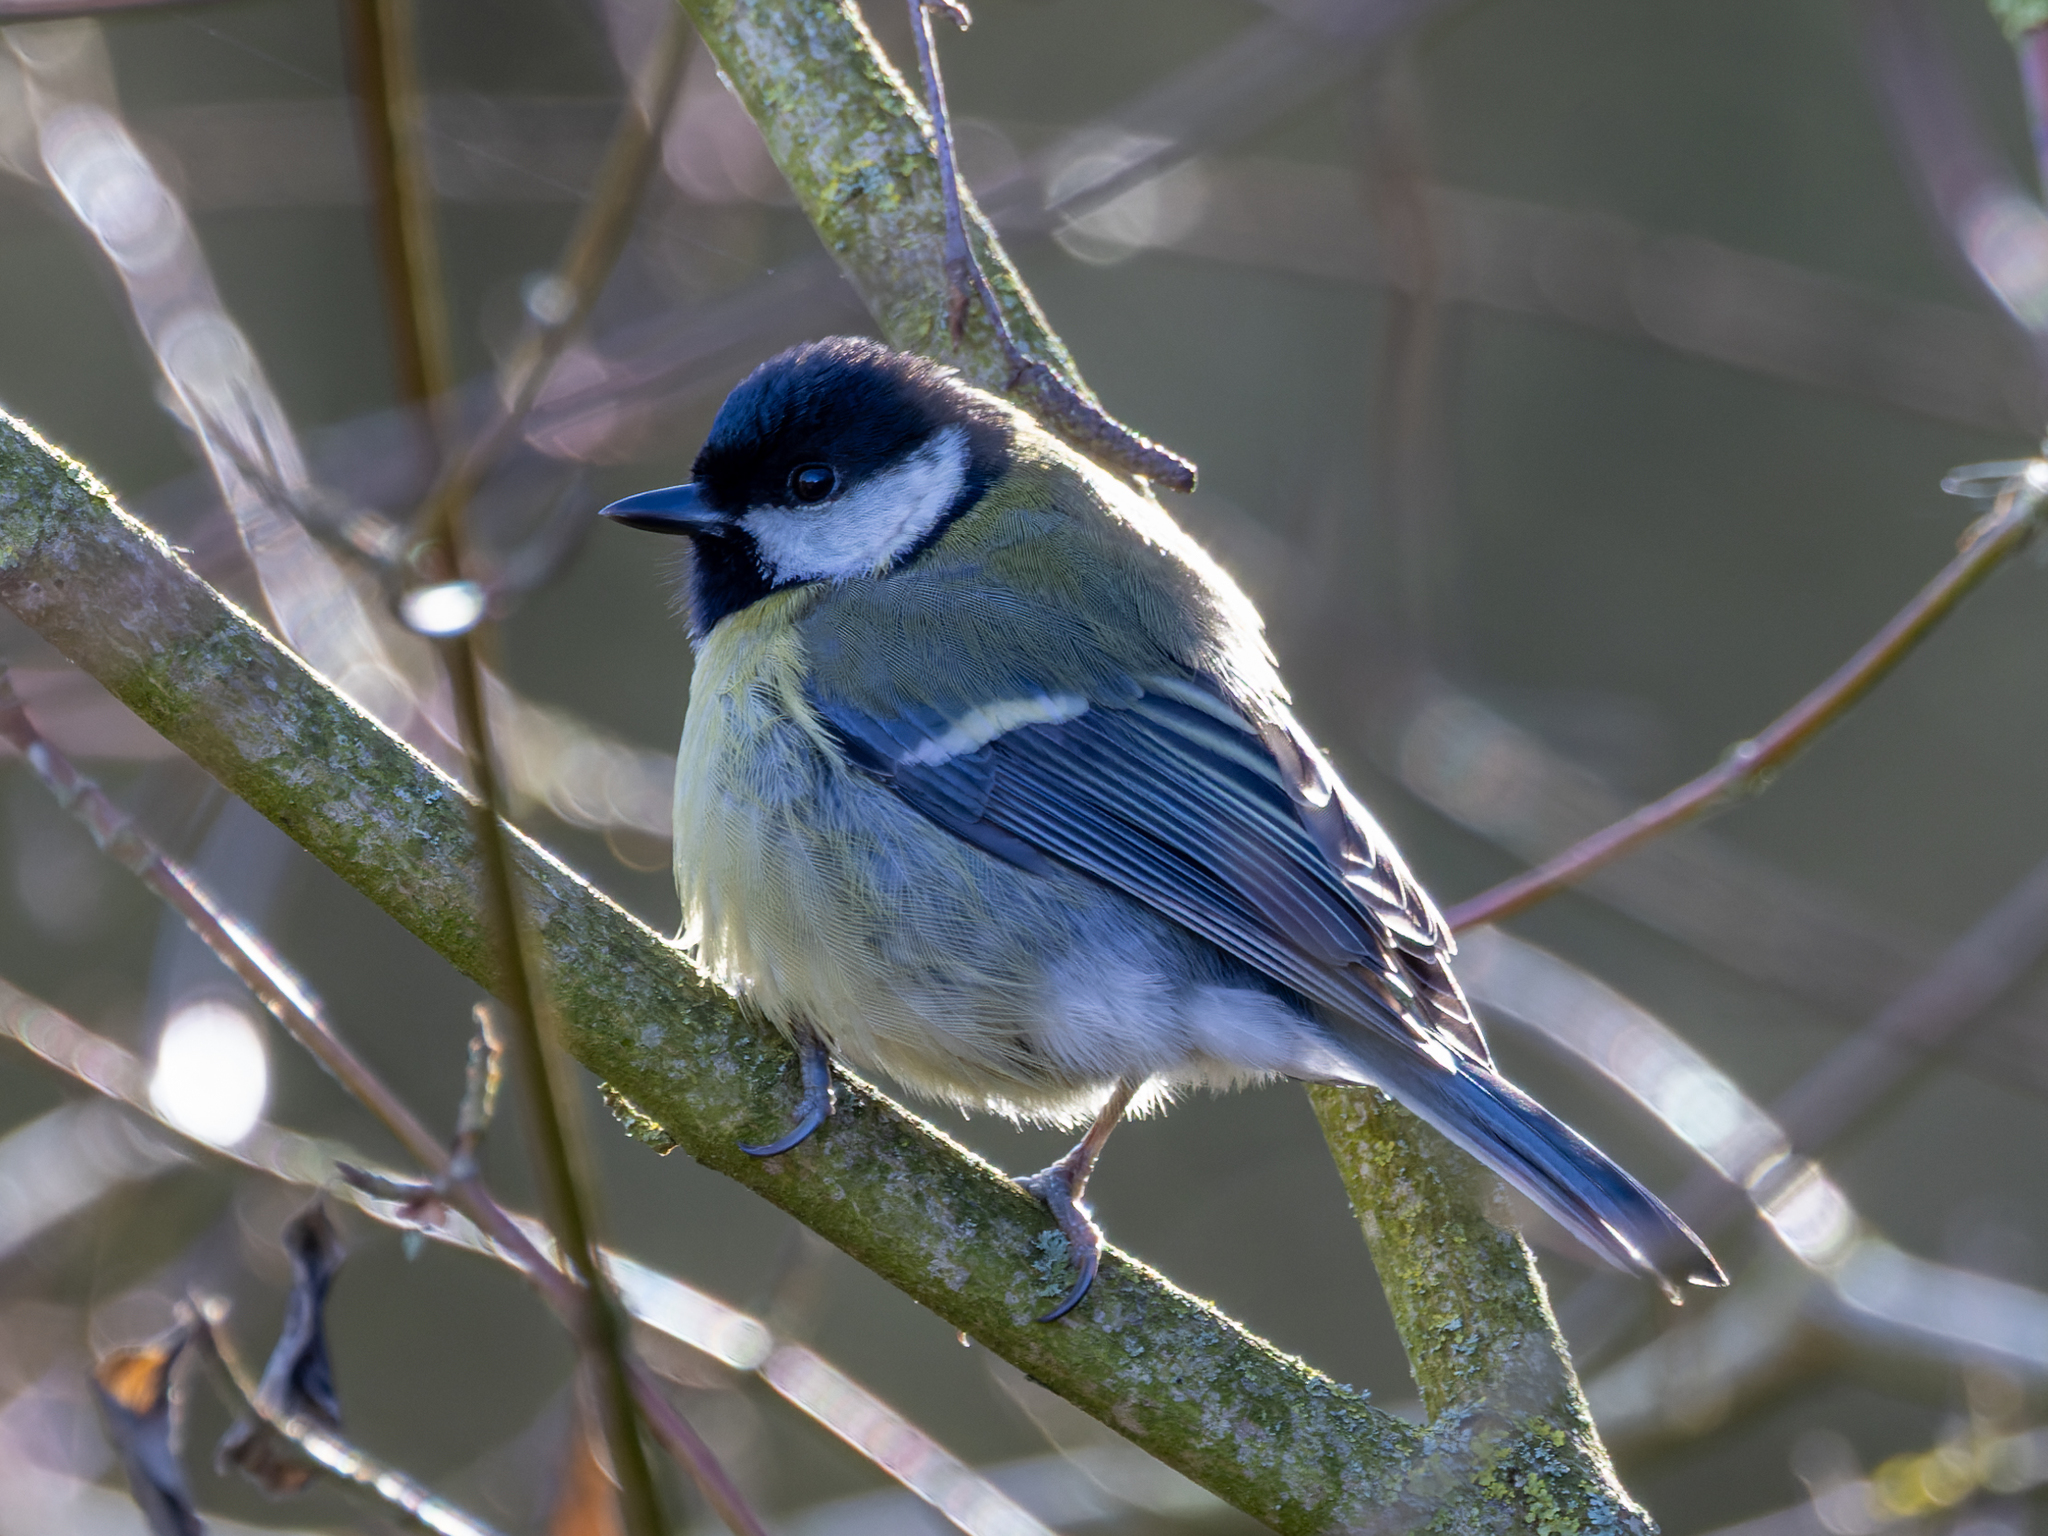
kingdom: Animalia
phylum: Chordata
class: Aves
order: Passeriformes
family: Paridae
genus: Parus
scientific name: Parus major
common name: Great tit
